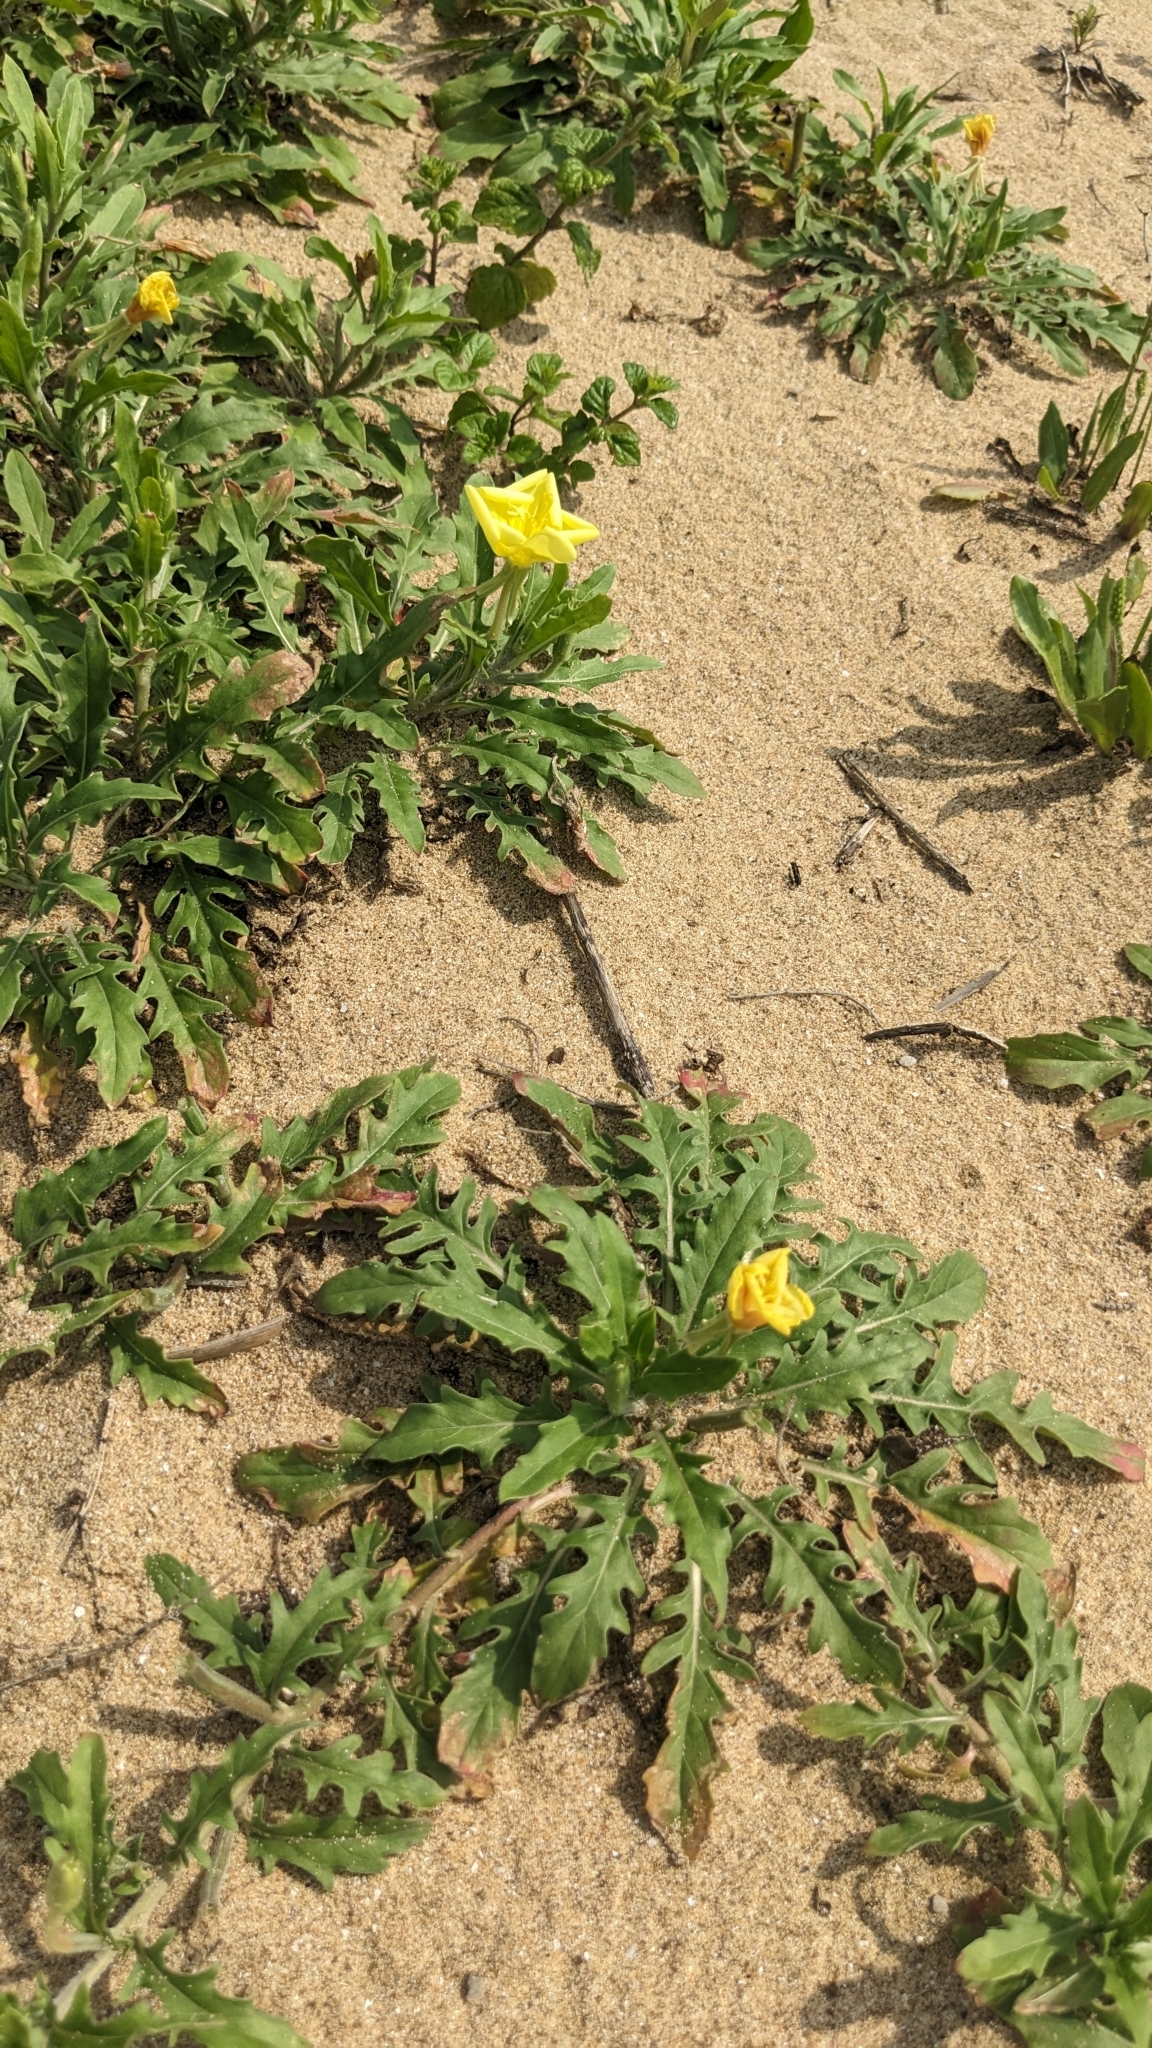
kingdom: Plantae
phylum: Tracheophyta
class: Magnoliopsida
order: Myrtales
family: Onagraceae
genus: Oenothera
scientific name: Oenothera laciniata
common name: Cut-leaved evening-primrose
